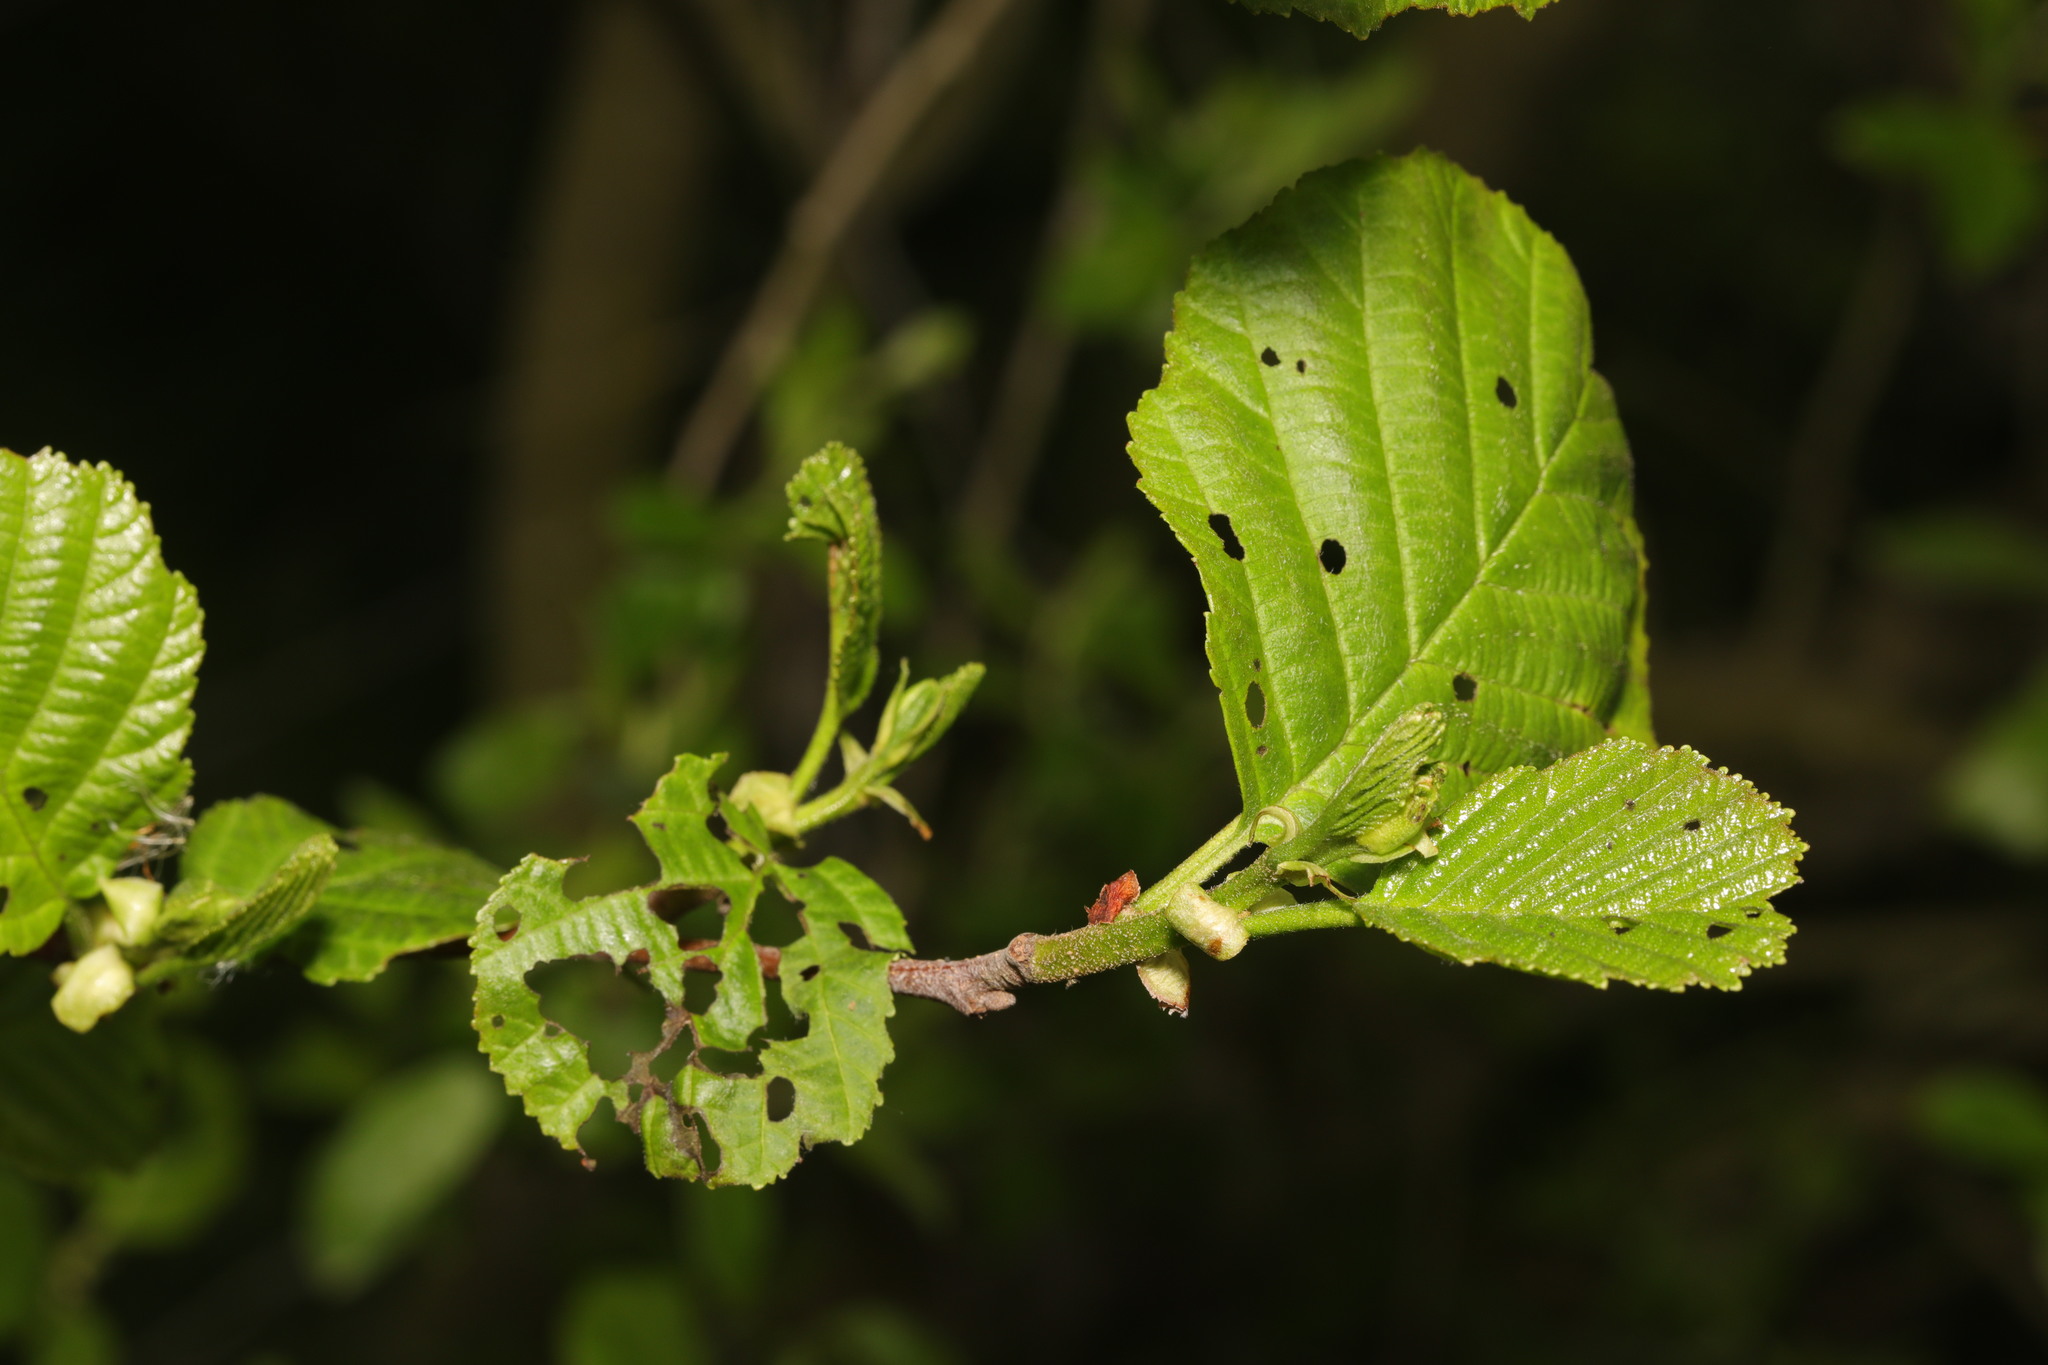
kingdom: Plantae
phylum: Tracheophyta
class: Magnoliopsida
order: Fagales
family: Betulaceae
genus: Alnus
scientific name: Alnus glutinosa
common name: Black alder
